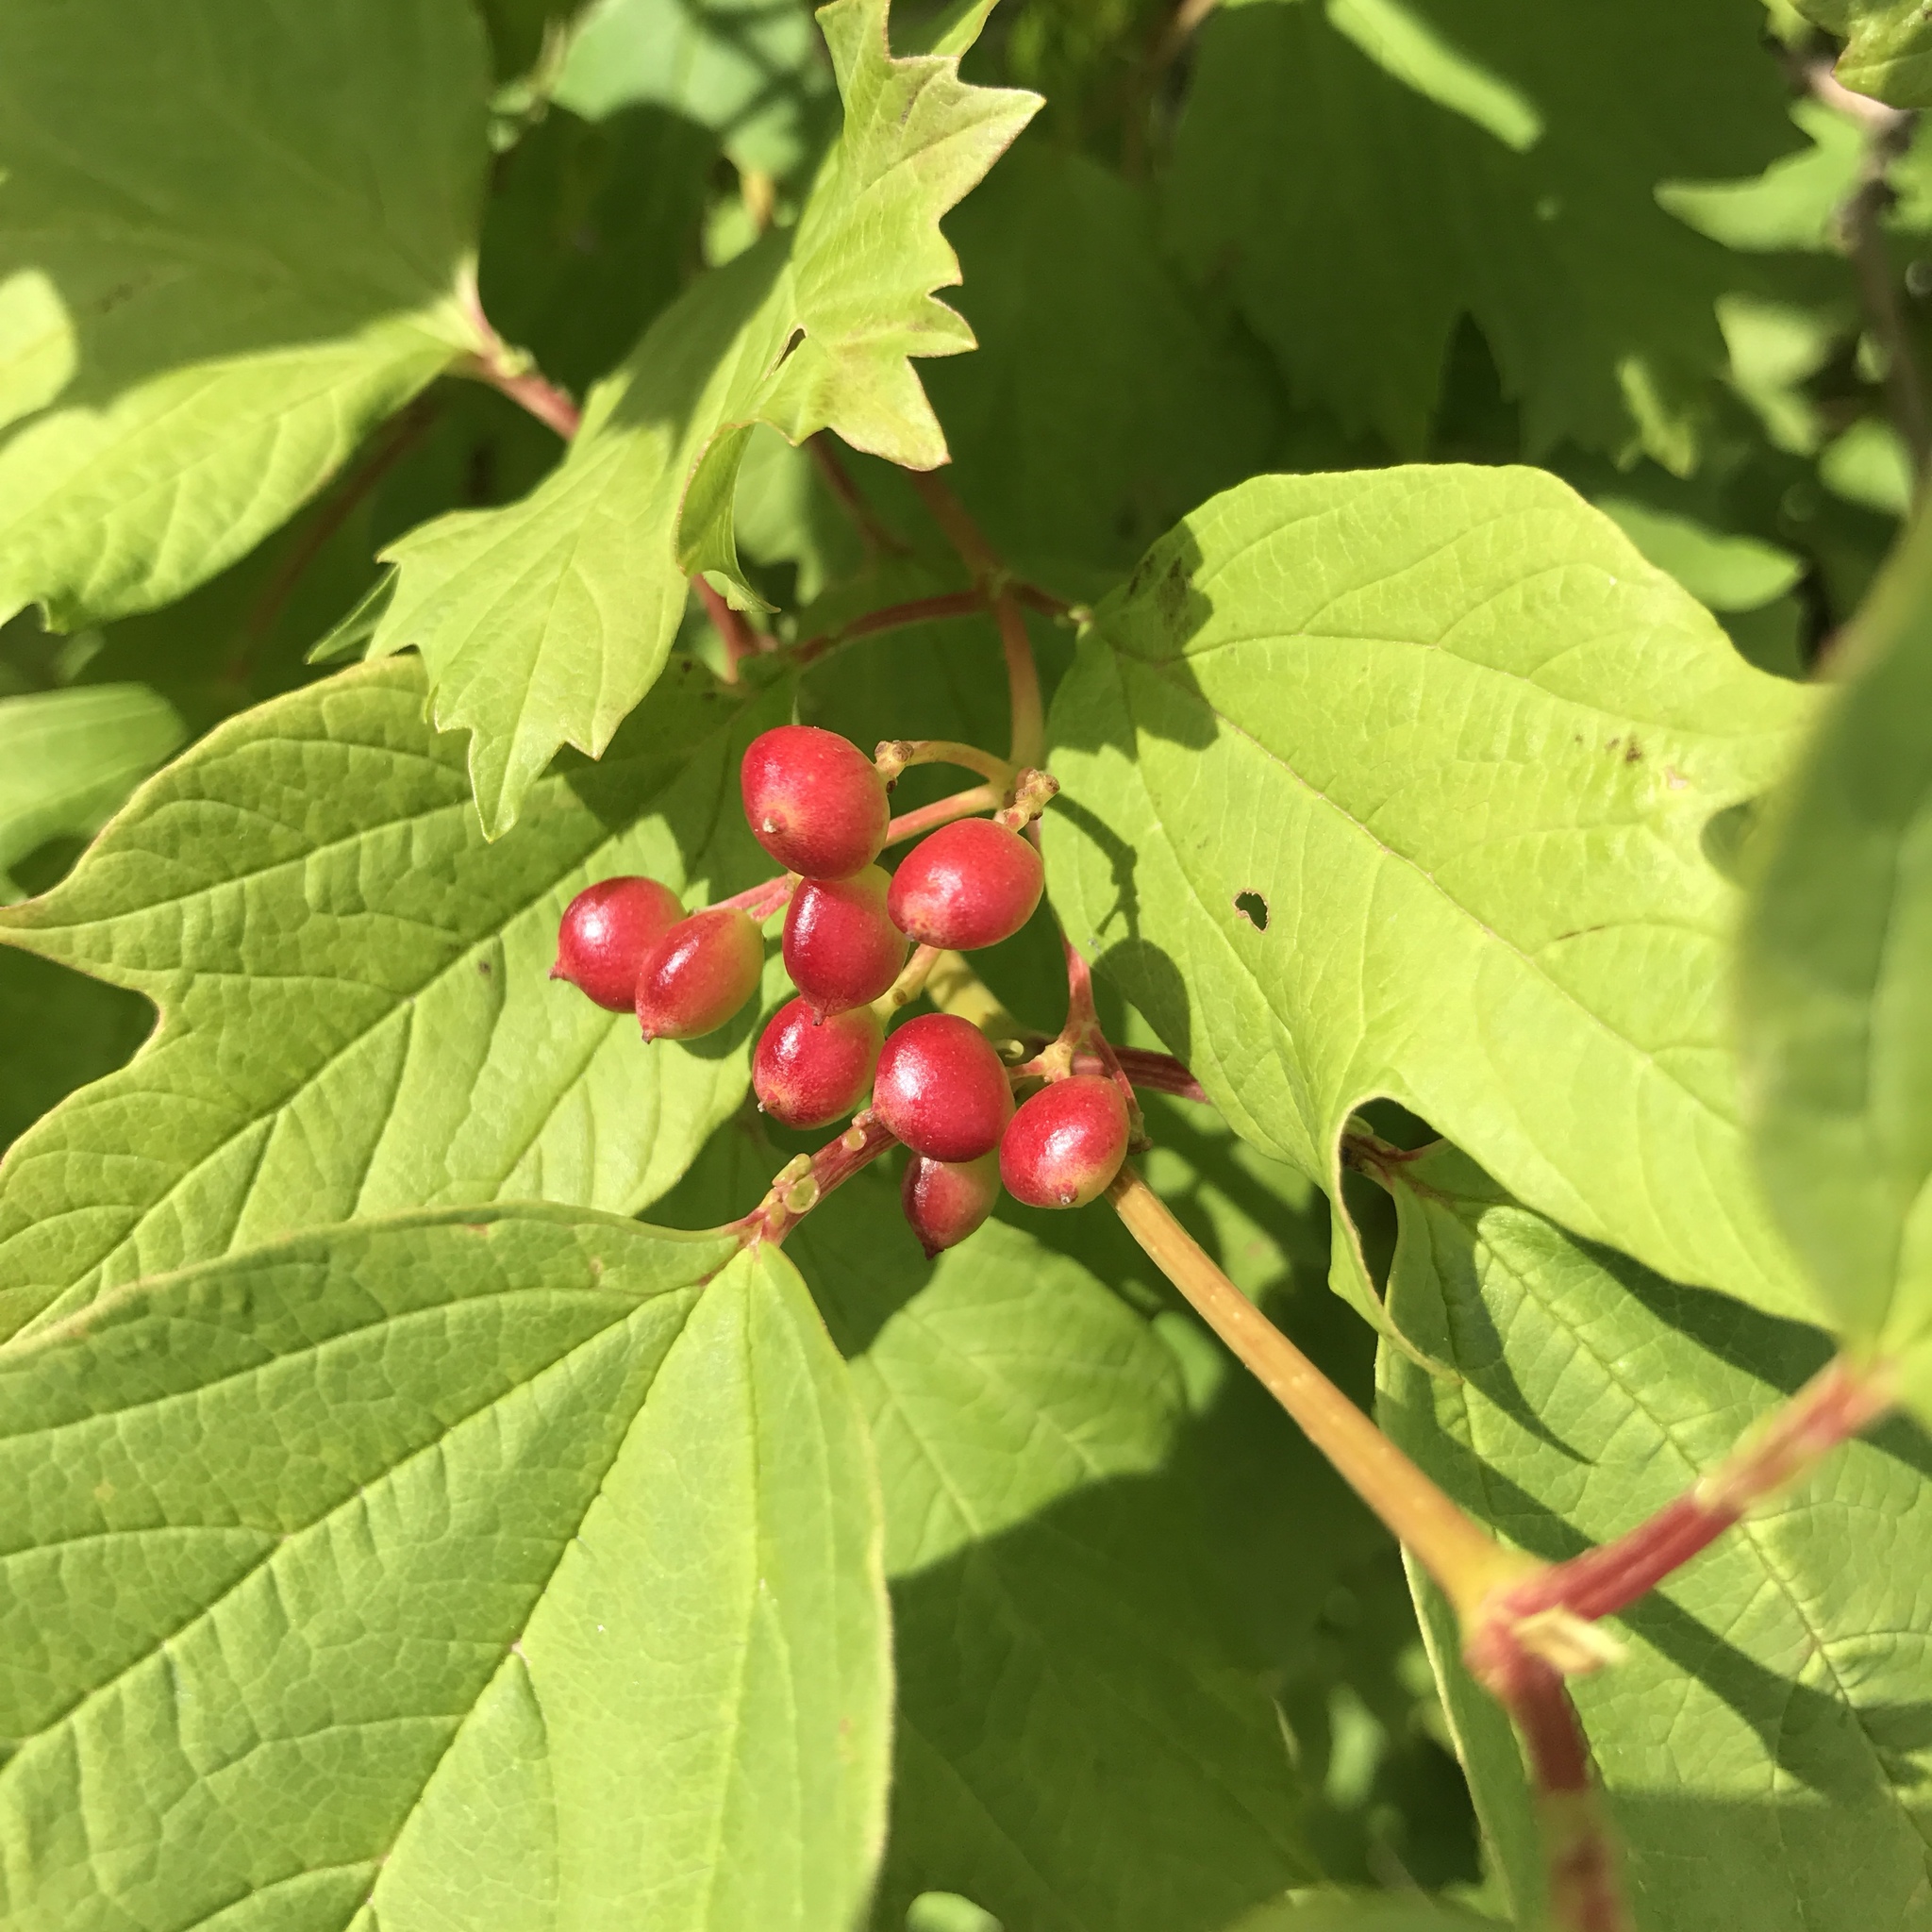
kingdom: Plantae
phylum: Tracheophyta
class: Magnoliopsida
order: Dipsacales
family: Viburnaceae
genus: Viburnum
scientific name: Viburnum opulus
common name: Guelder-rose
